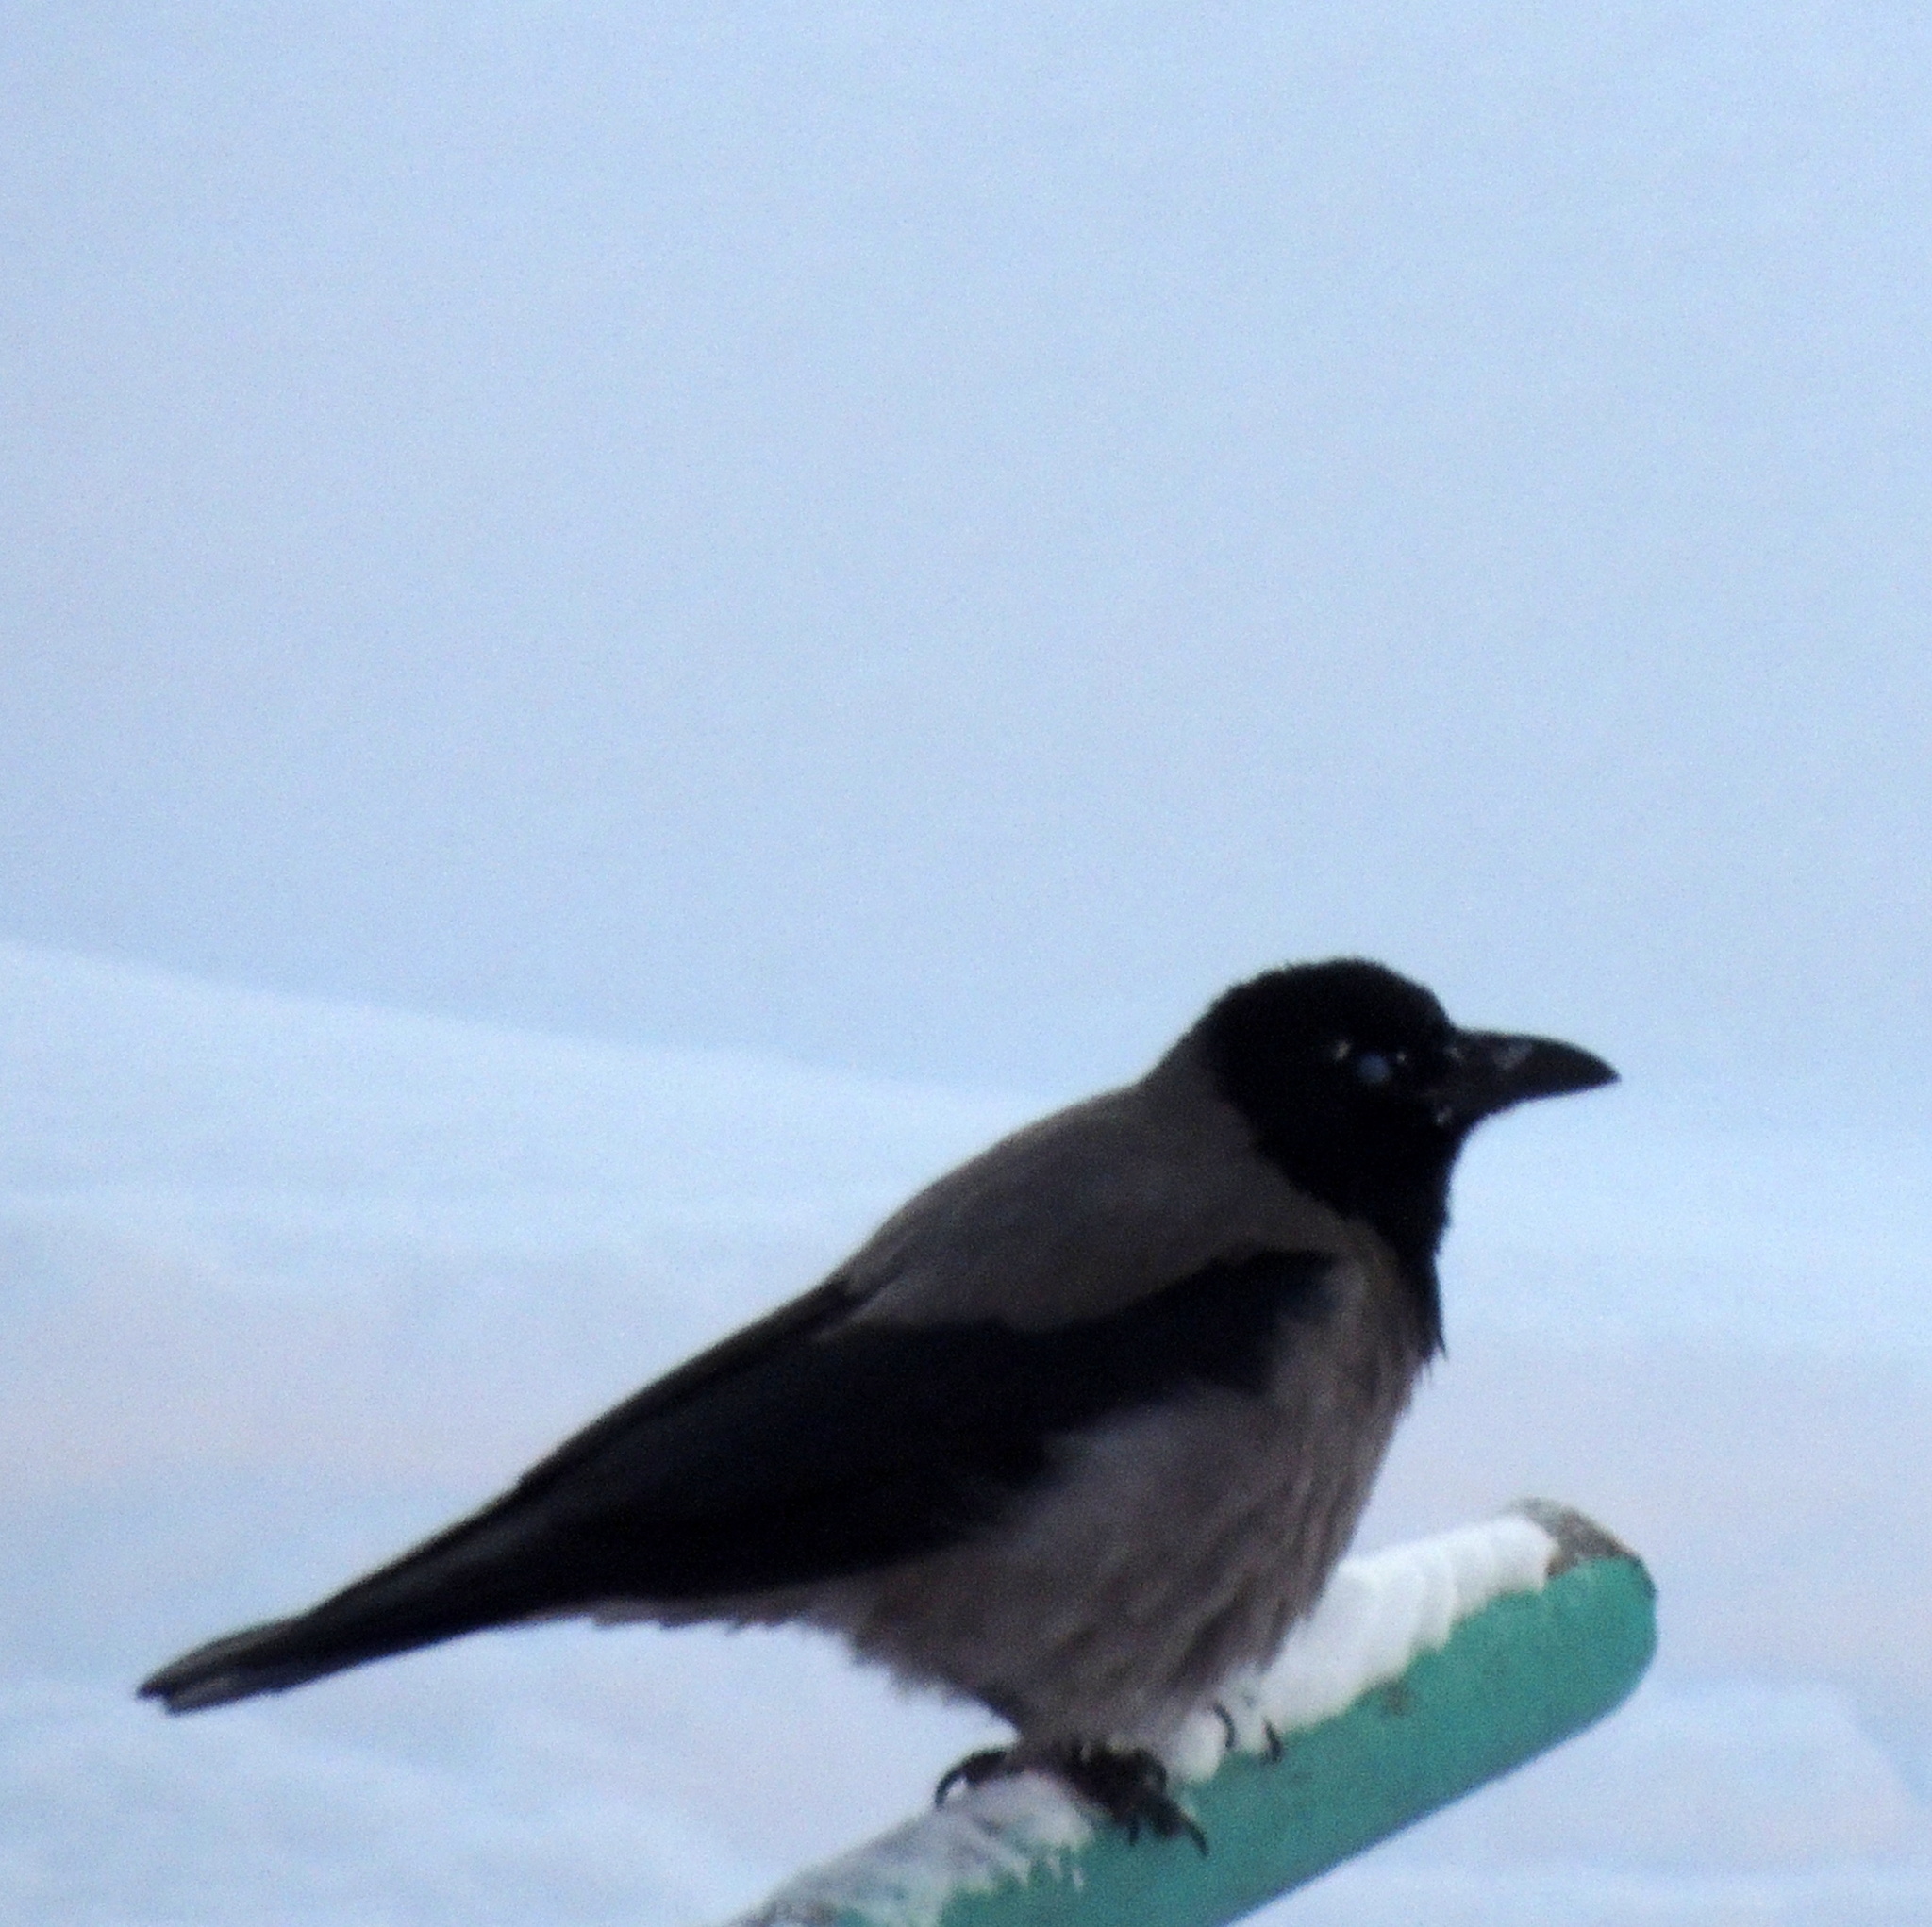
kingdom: Animalia
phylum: Chordata
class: Aves
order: Passeriformes
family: Corvidae
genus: Corvus
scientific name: Corvus cornix
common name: Hooded crow
